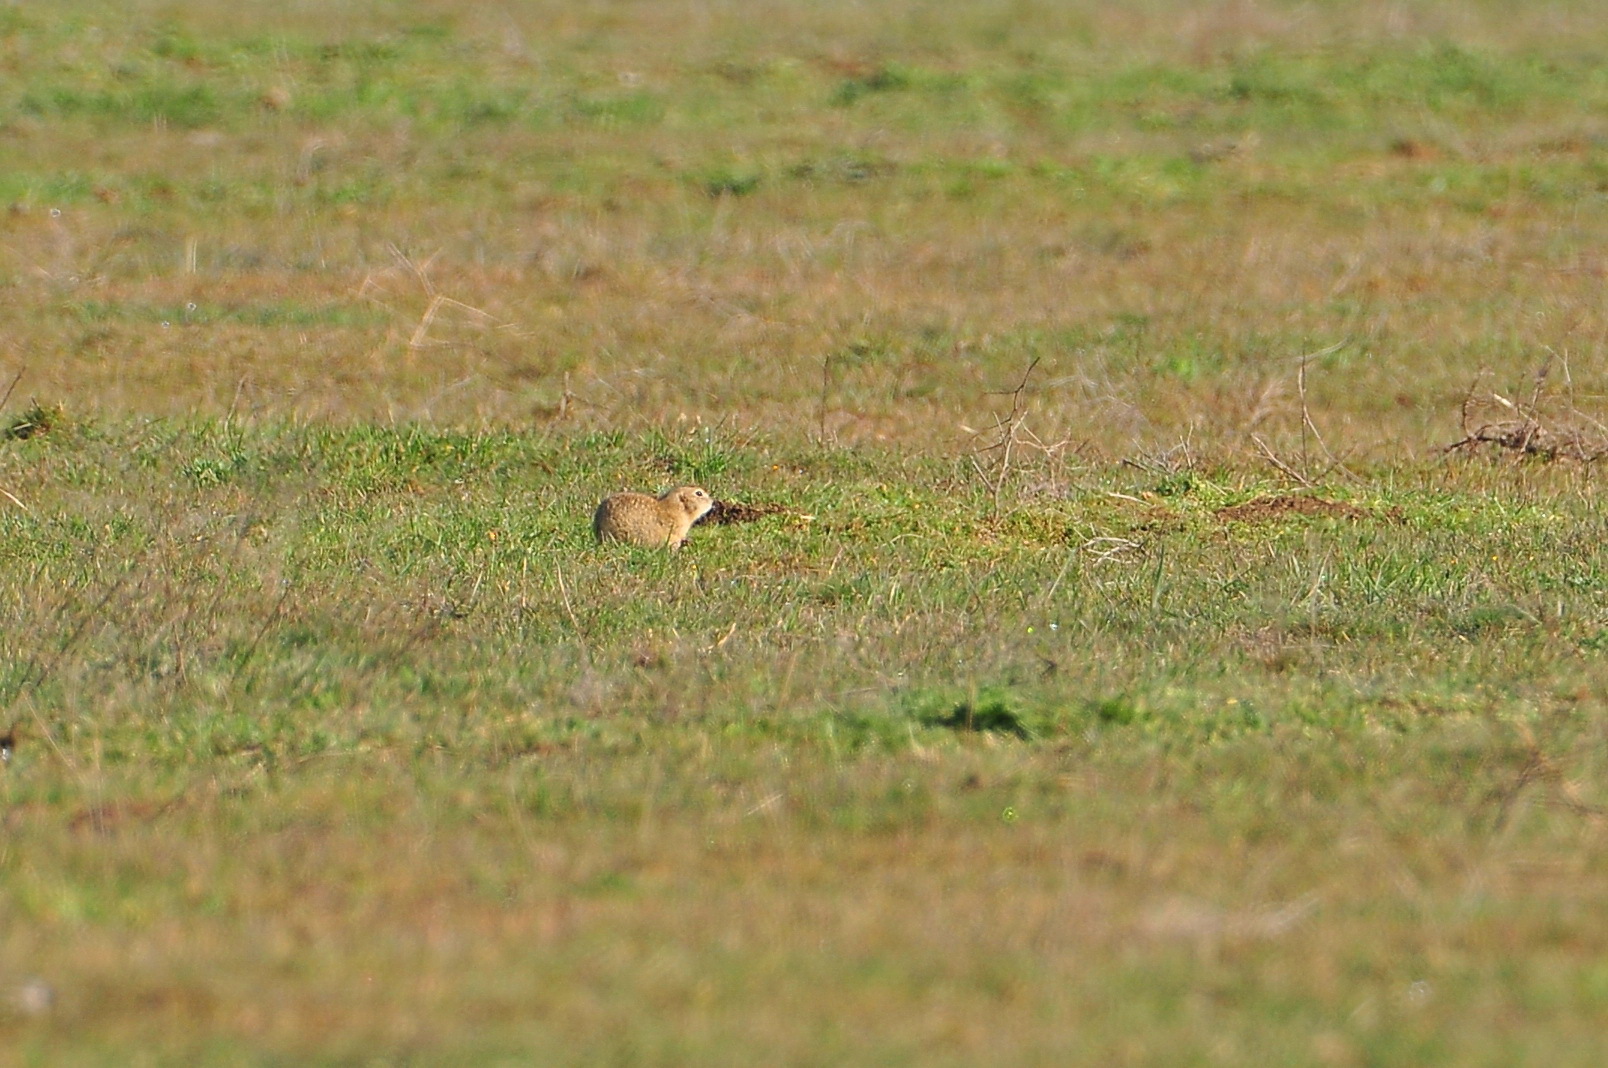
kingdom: Animalia
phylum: Chordata
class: Mammalia
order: Rodentia
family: Sciuridae
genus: Spermophilus
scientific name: Spermophilus pygmaeus
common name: Little ground squirrel
